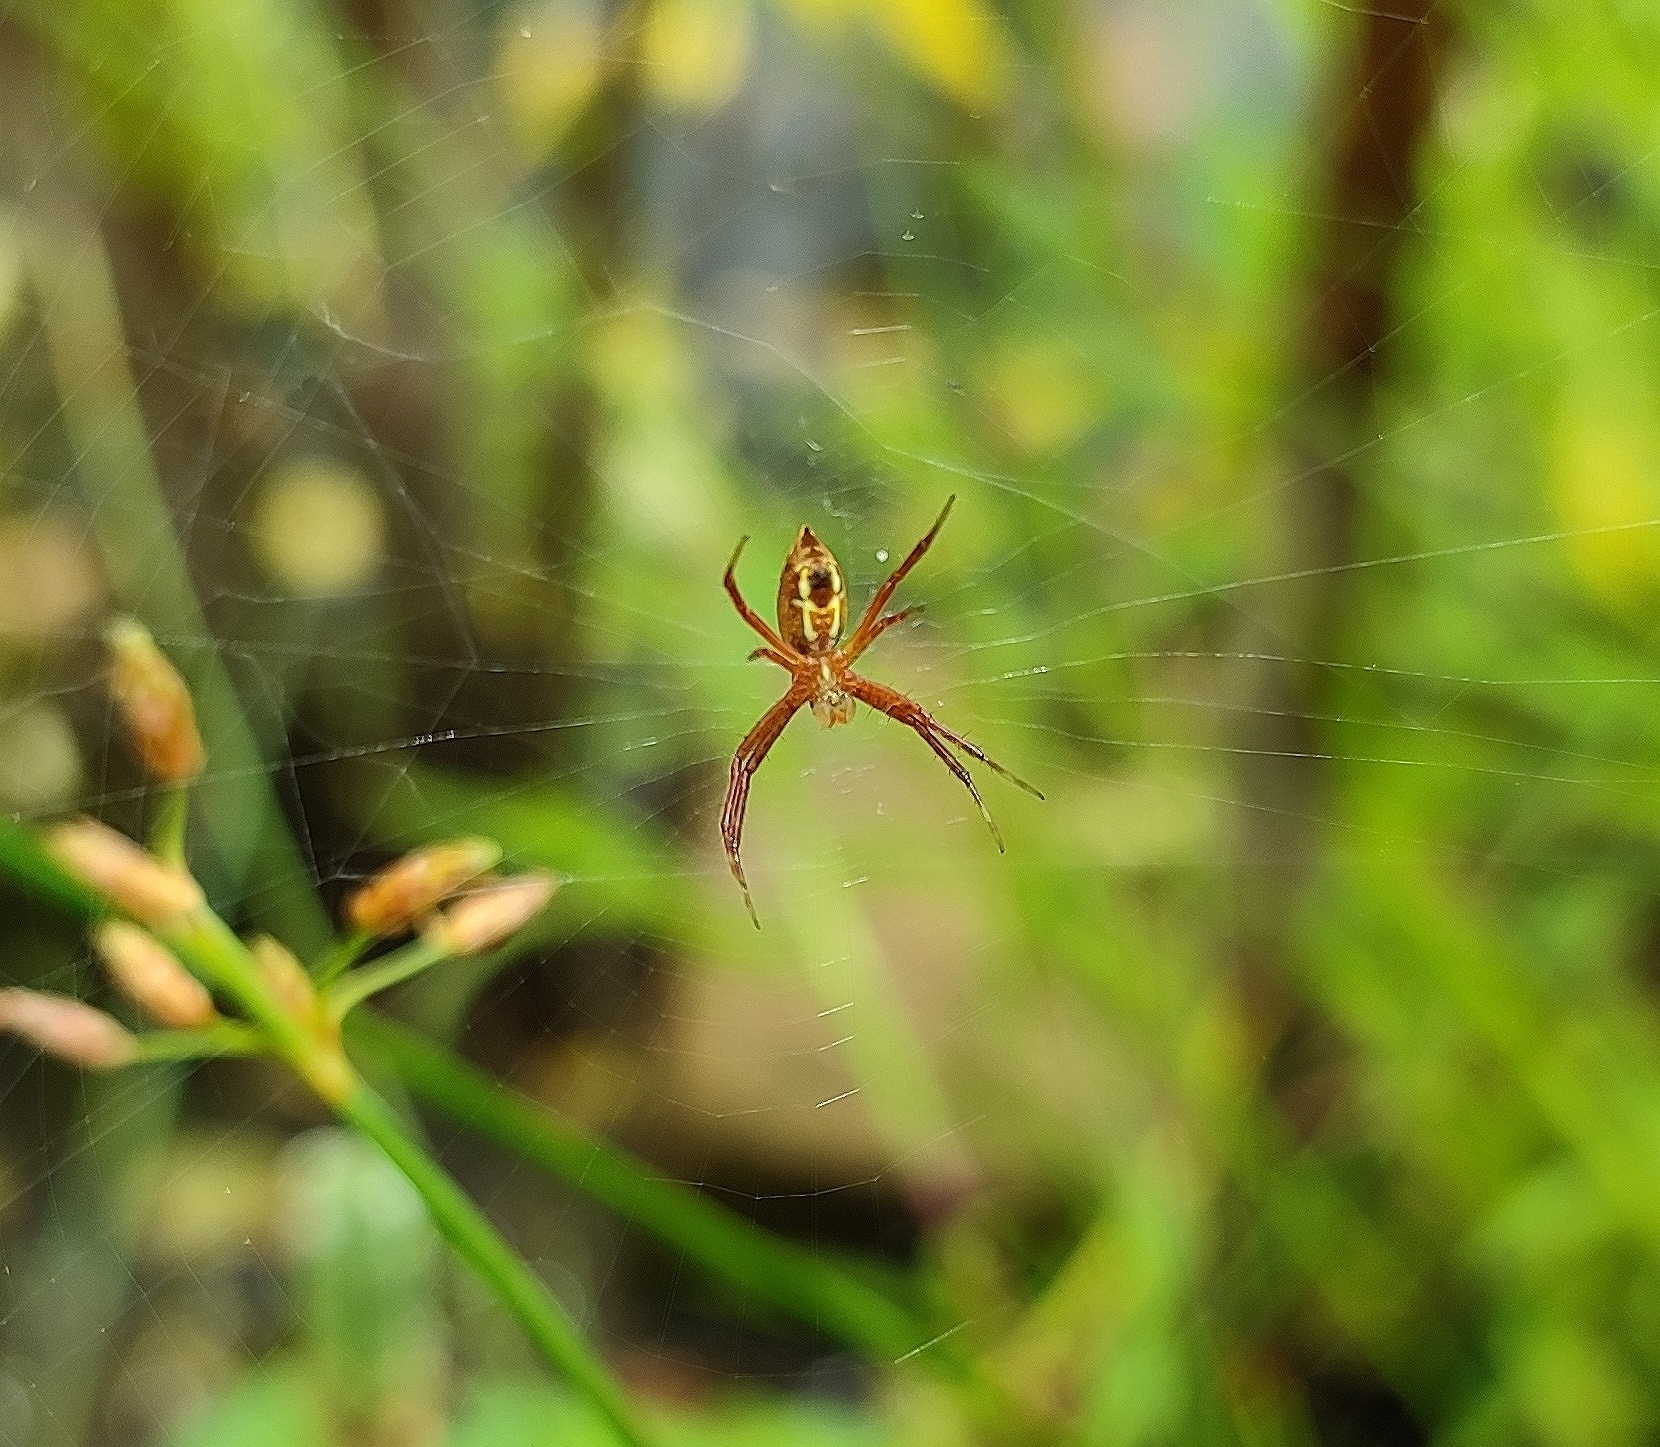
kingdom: Animalia
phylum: Arthropoda
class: Arachnida
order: Araneae
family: Araneidae
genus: Argiope
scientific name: Argiope catenulata
